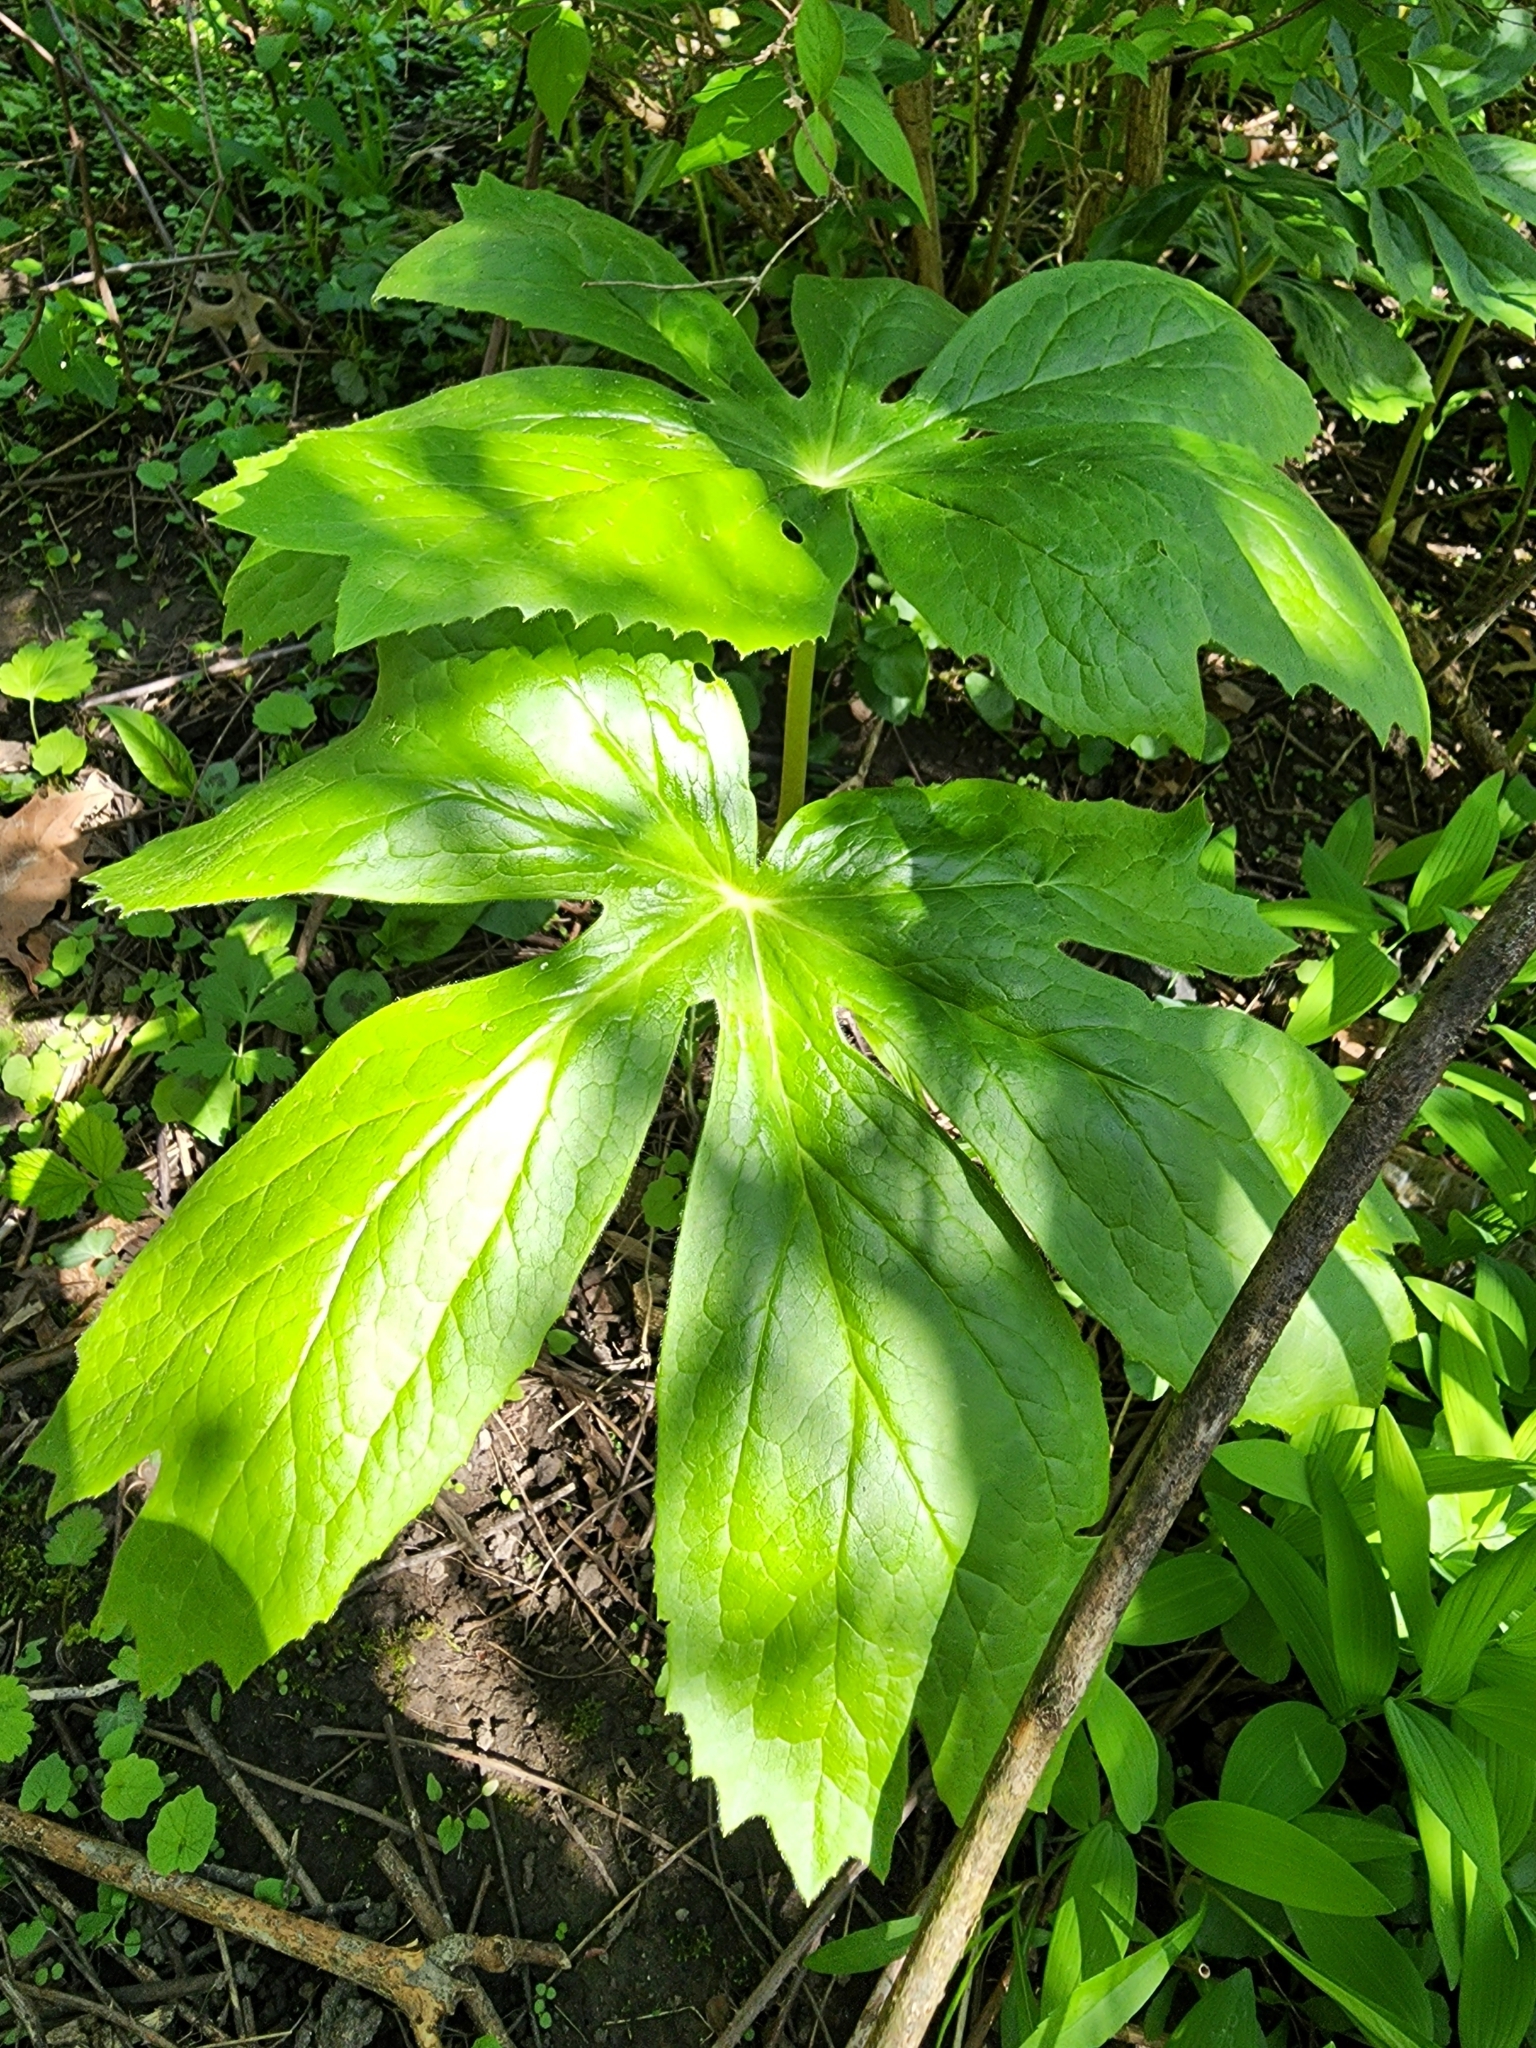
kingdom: Plantae
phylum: Tracheophyta
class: Magnoliopsida
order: Ranunculales
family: Berberidaceae
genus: Podophyllum
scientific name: Podophyllum peltatum
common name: Wild mandrake
